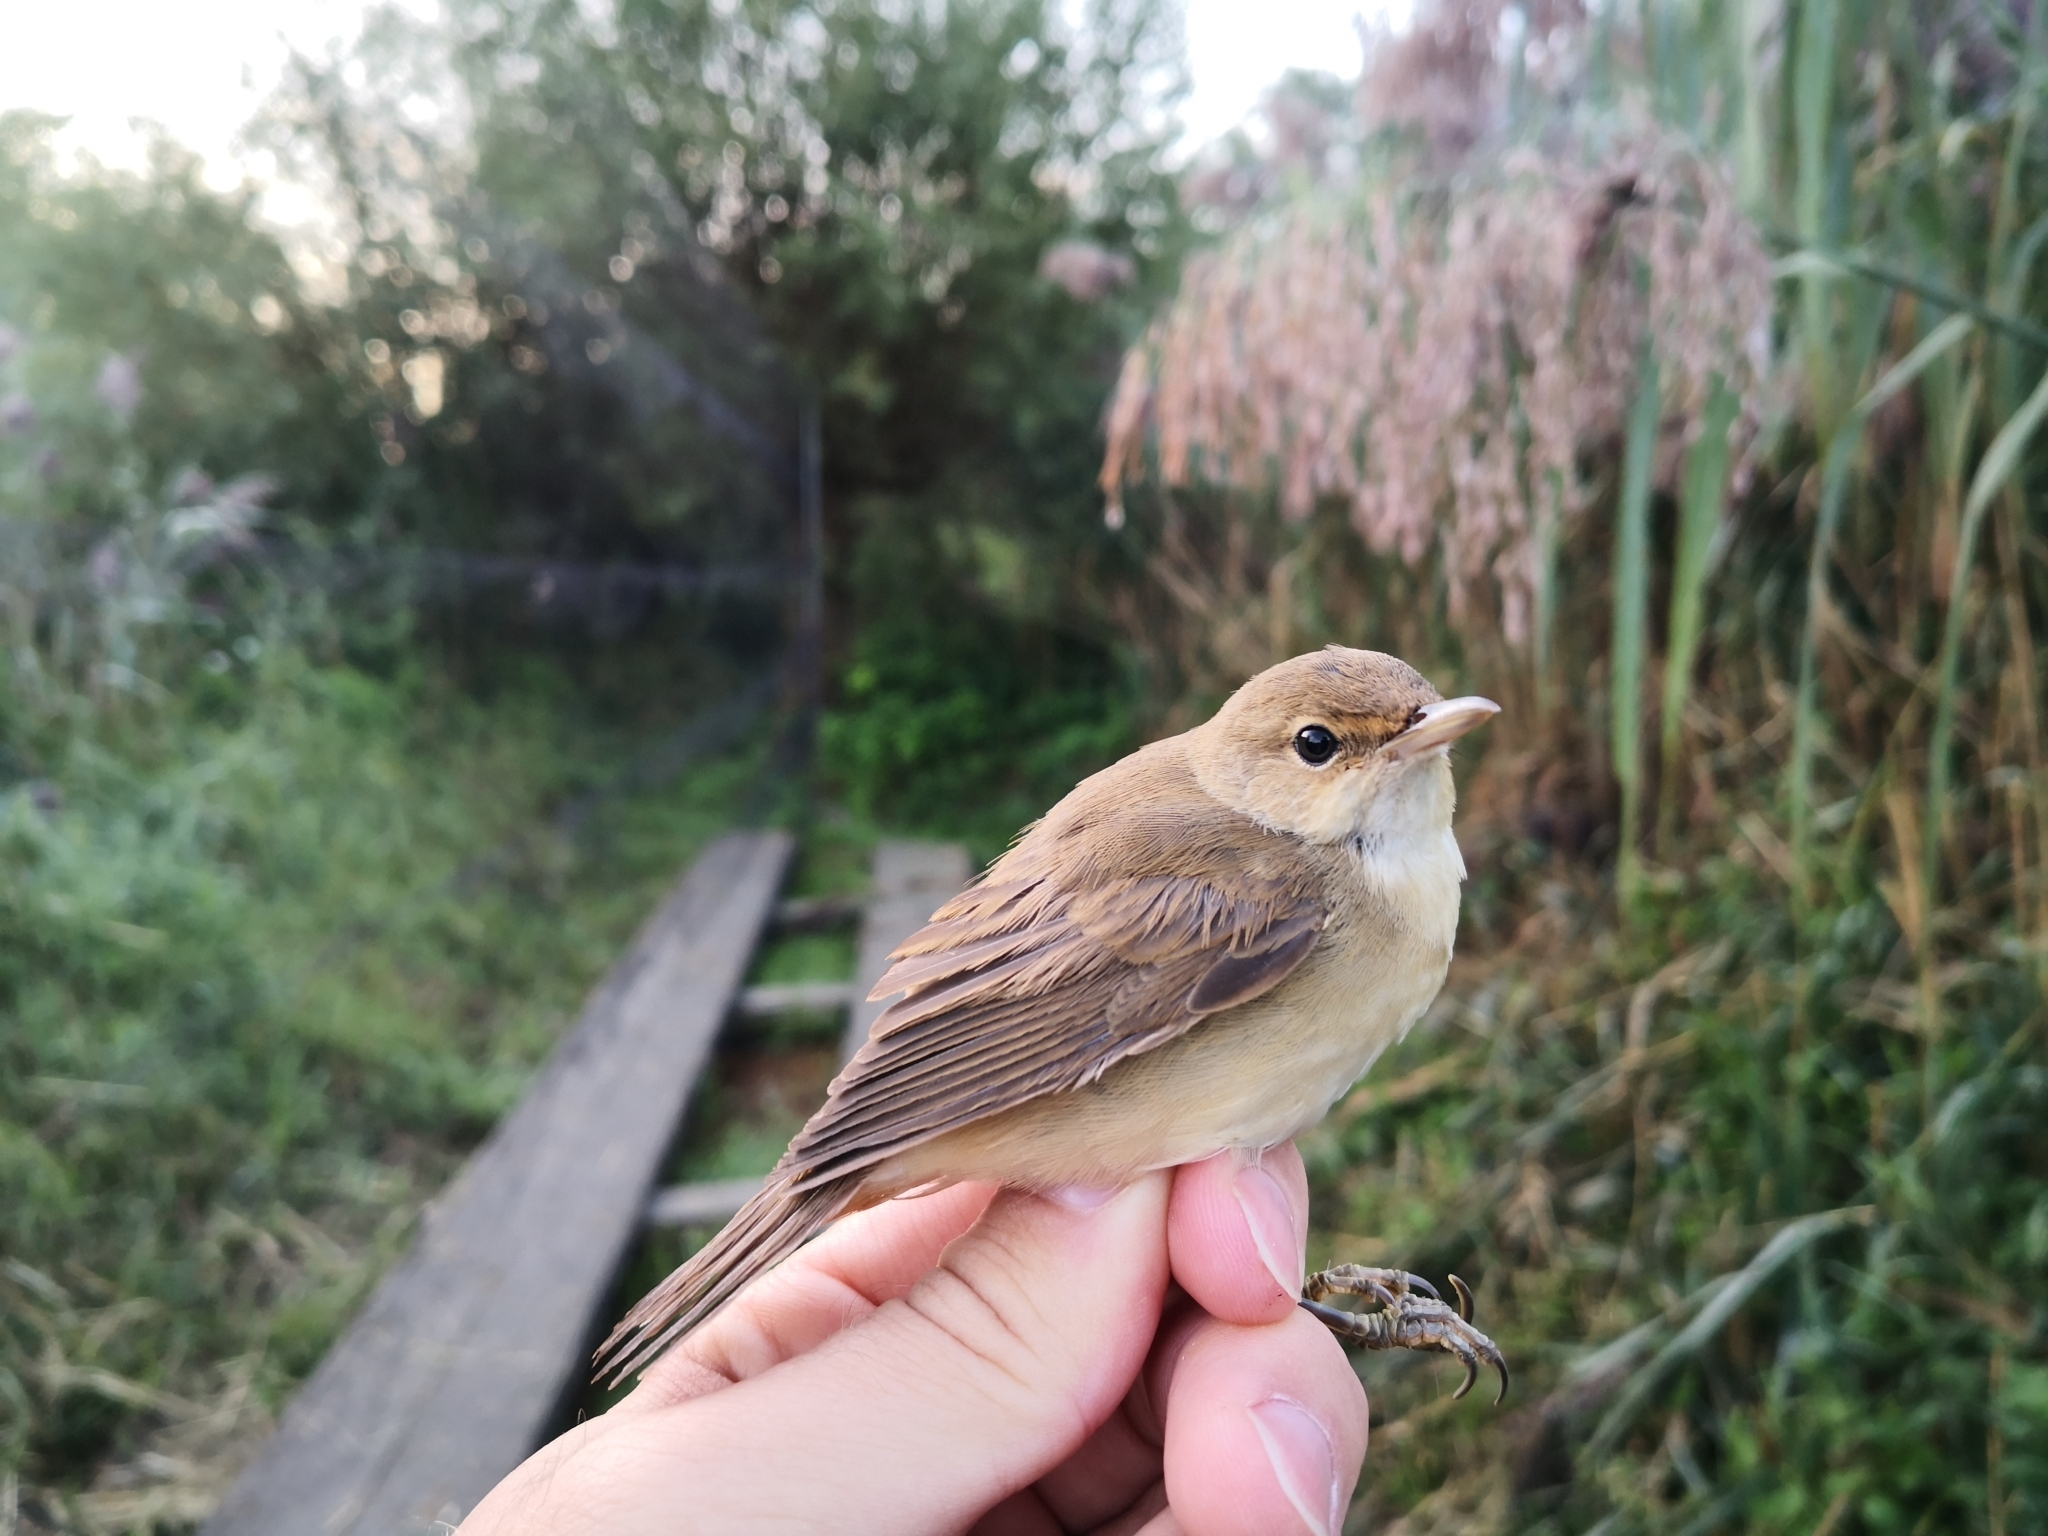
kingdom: Animalia
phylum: Chordata
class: Aves
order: Passeriformes
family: Acrocephalidae
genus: Acrocephalus
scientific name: Acrocephalus scirpaceus
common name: Eurasian reed warbler
